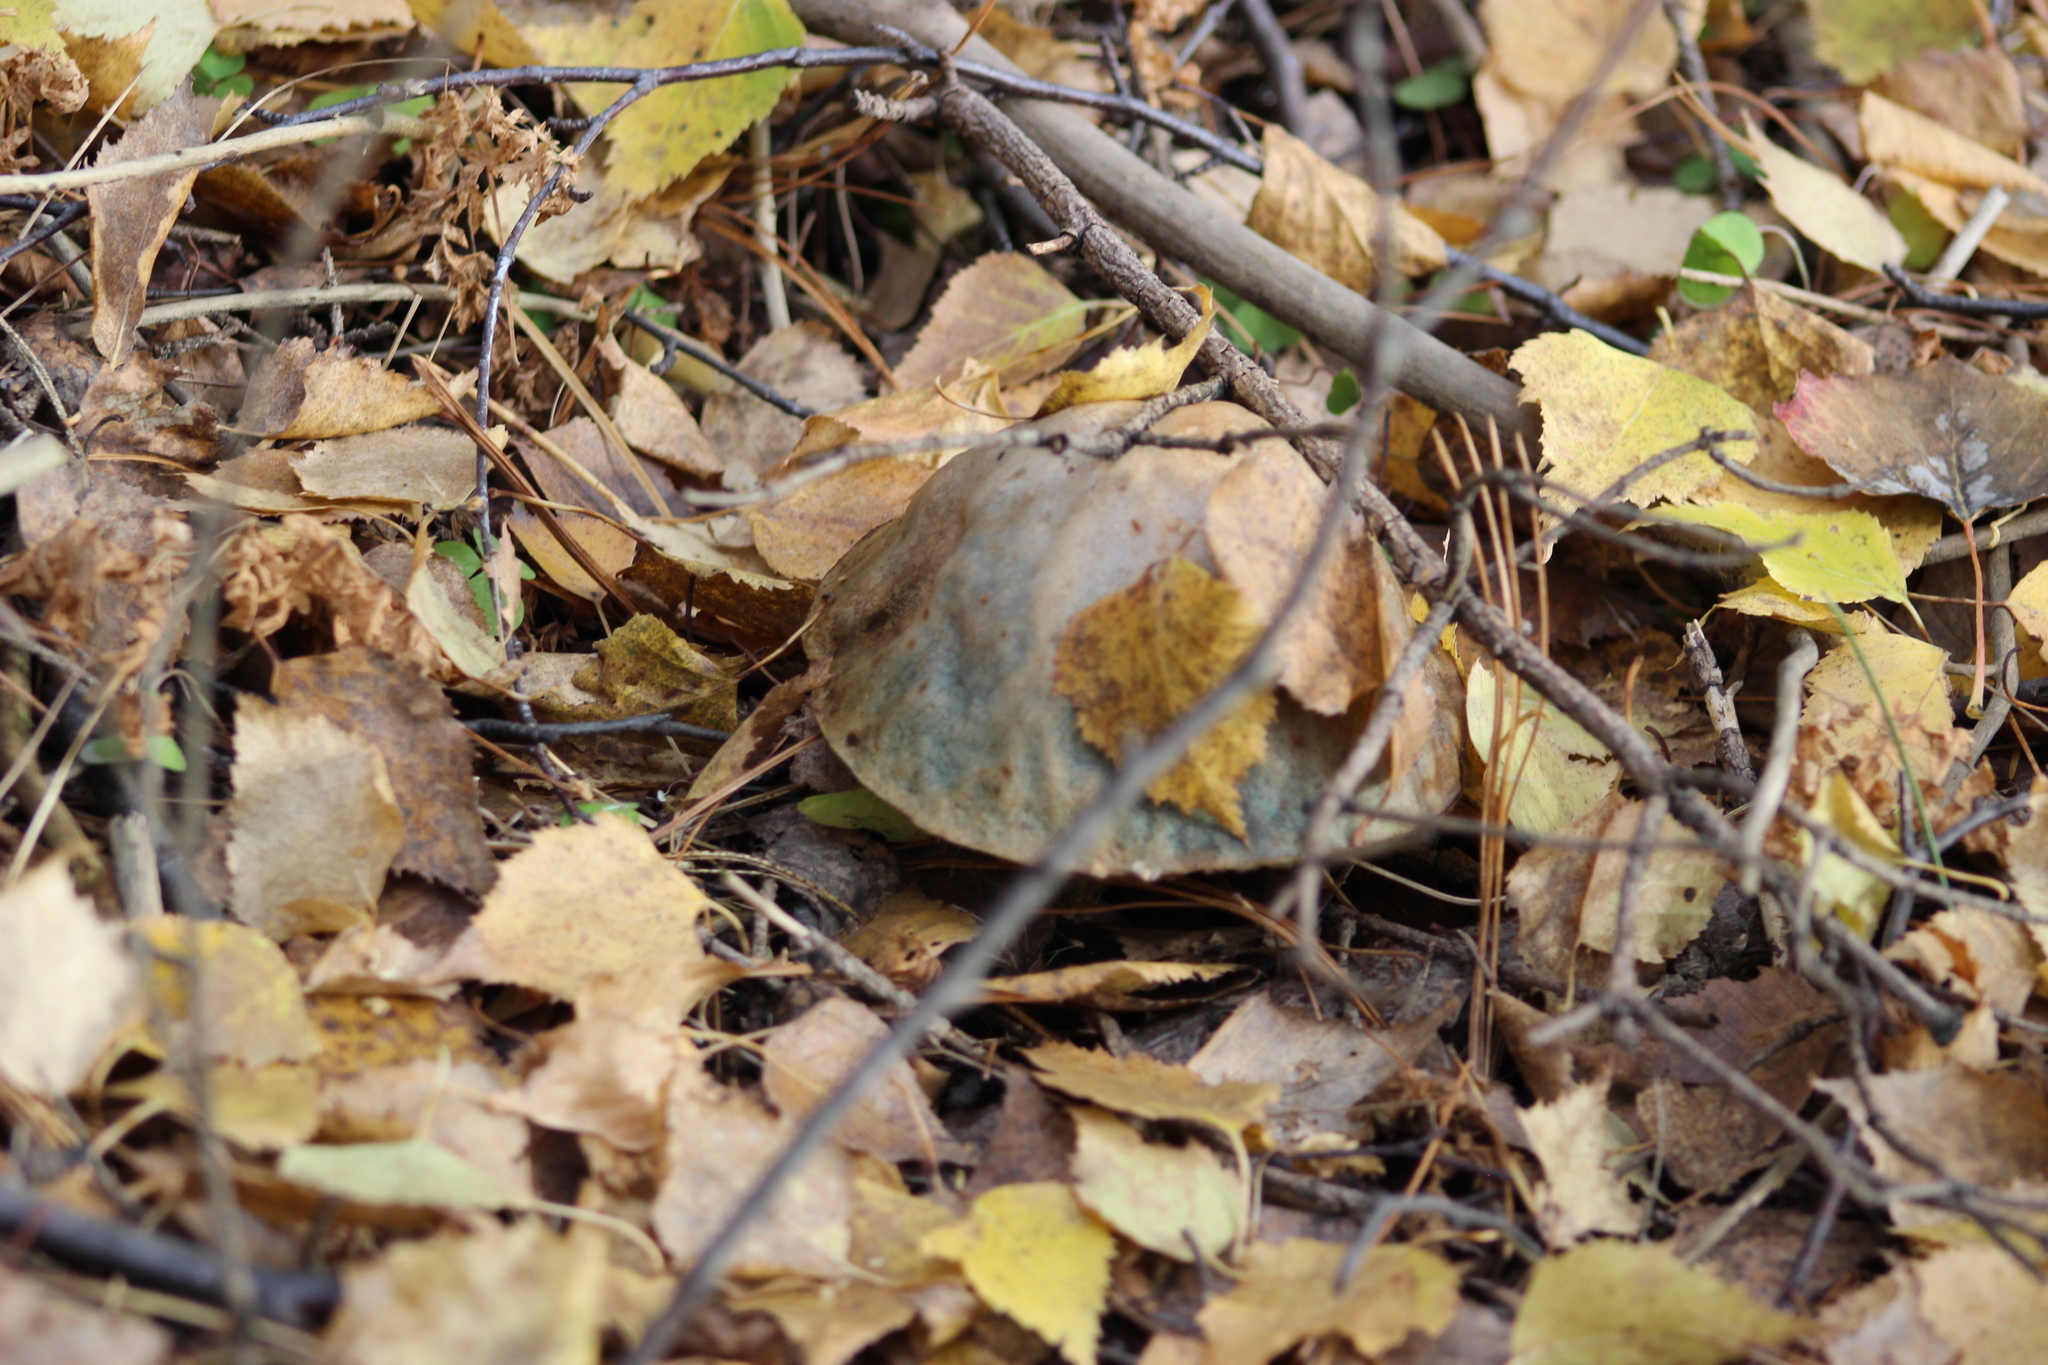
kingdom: Fungi
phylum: Basidiomycota
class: Agaricomycetes
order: Boletales
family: Boletaceae
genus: Leccinum
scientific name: Leccinum holopus
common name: Ghost bolete
